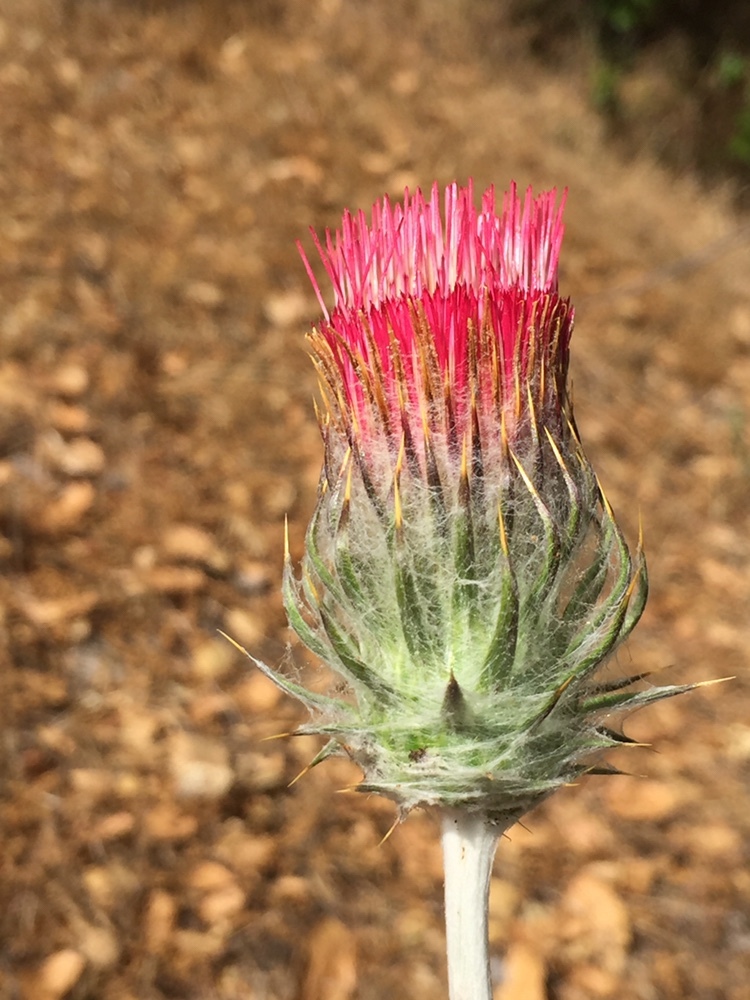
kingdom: Plantae
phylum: Tracheophyta
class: Magnoliopsida
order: Asterales
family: Asteraceae
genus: Cirsium
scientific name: Cirsium occidentale
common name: Western thistle
